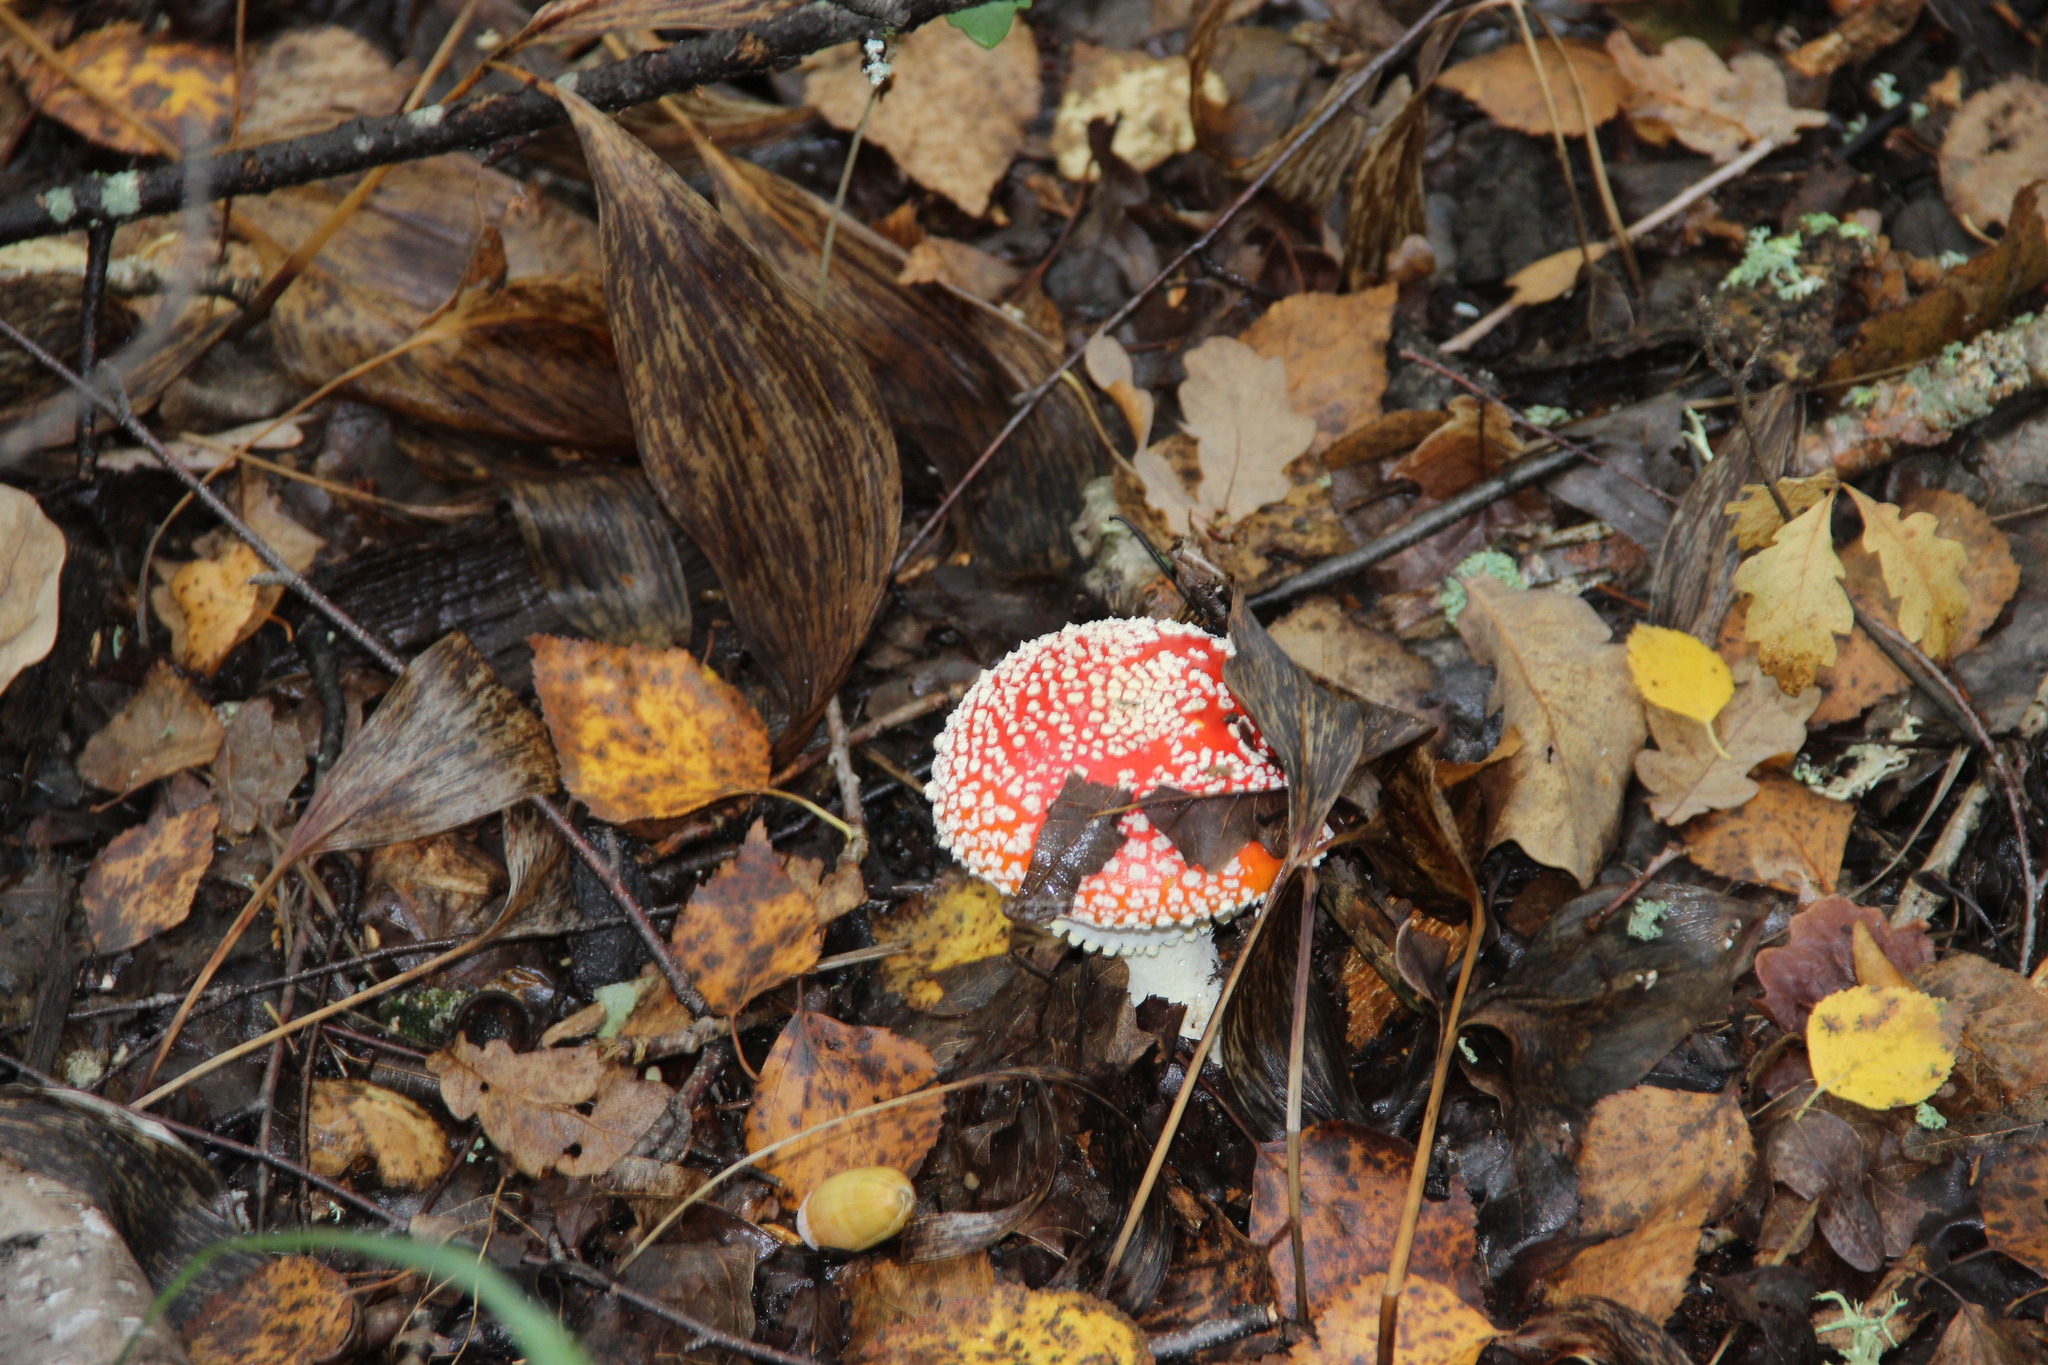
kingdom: Fungi
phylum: Basidiomycota
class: Agaricomycetes
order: Agaricales
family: Amanitaceae
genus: Amanita
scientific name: Amanita muscaria
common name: Fly agaric
